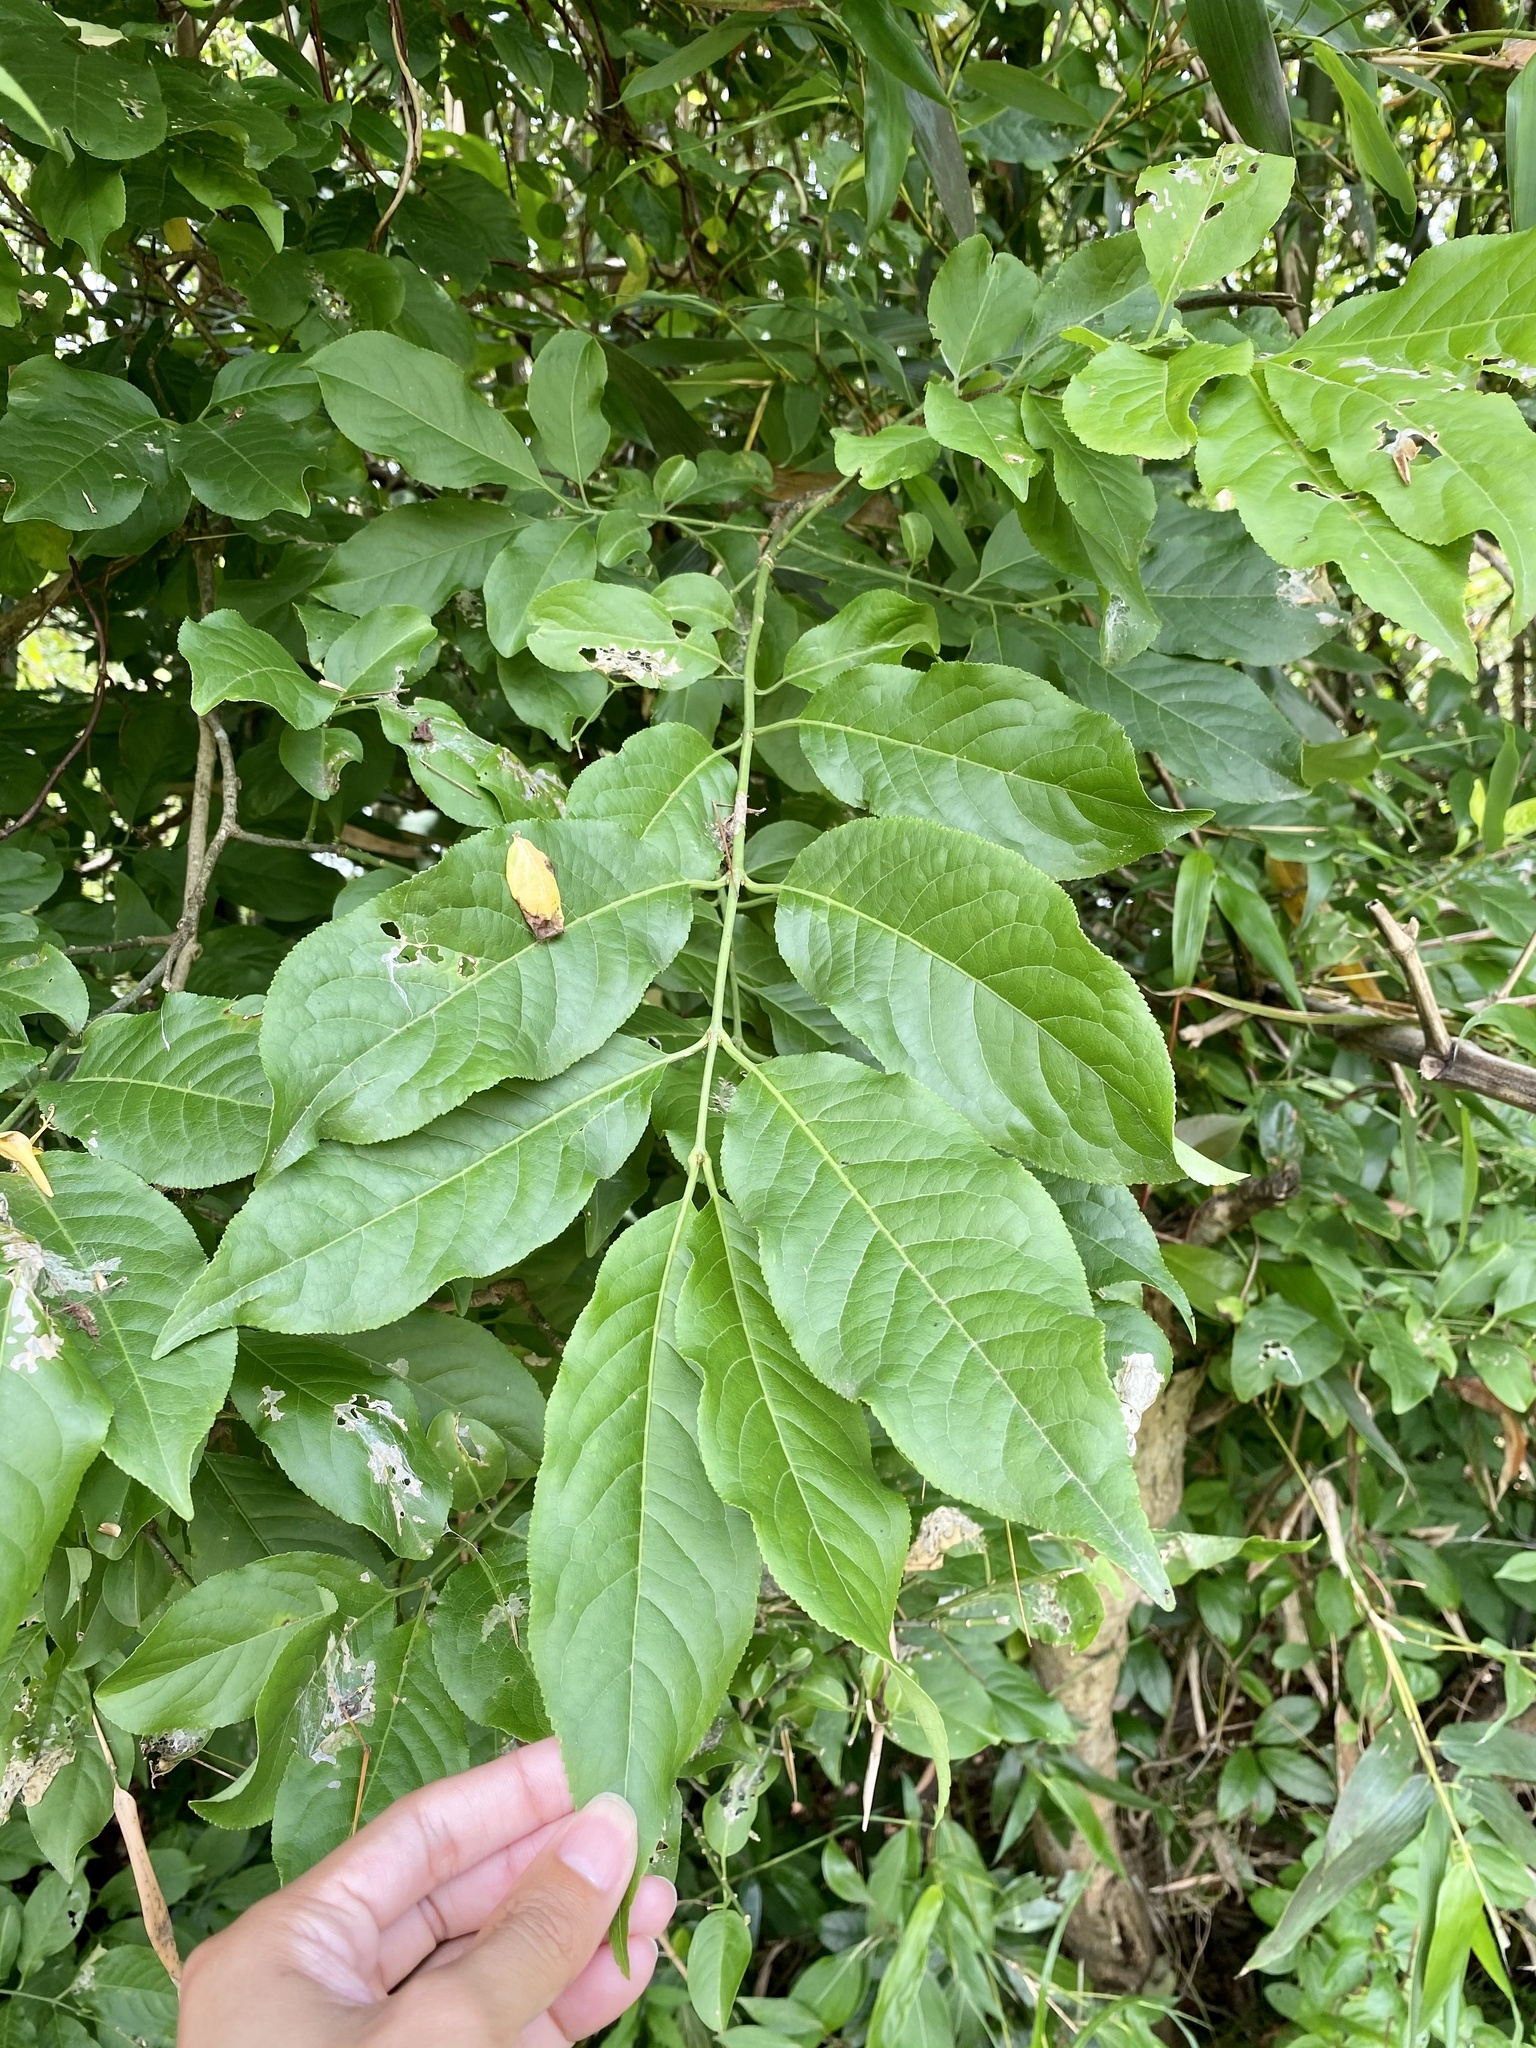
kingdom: Plantae
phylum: Tracheophyta
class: Magnoliopsida
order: Celastrales
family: Celastraceae
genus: Euonymus
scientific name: Euonymus hamiltonianus
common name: Hamilton's spindletree
